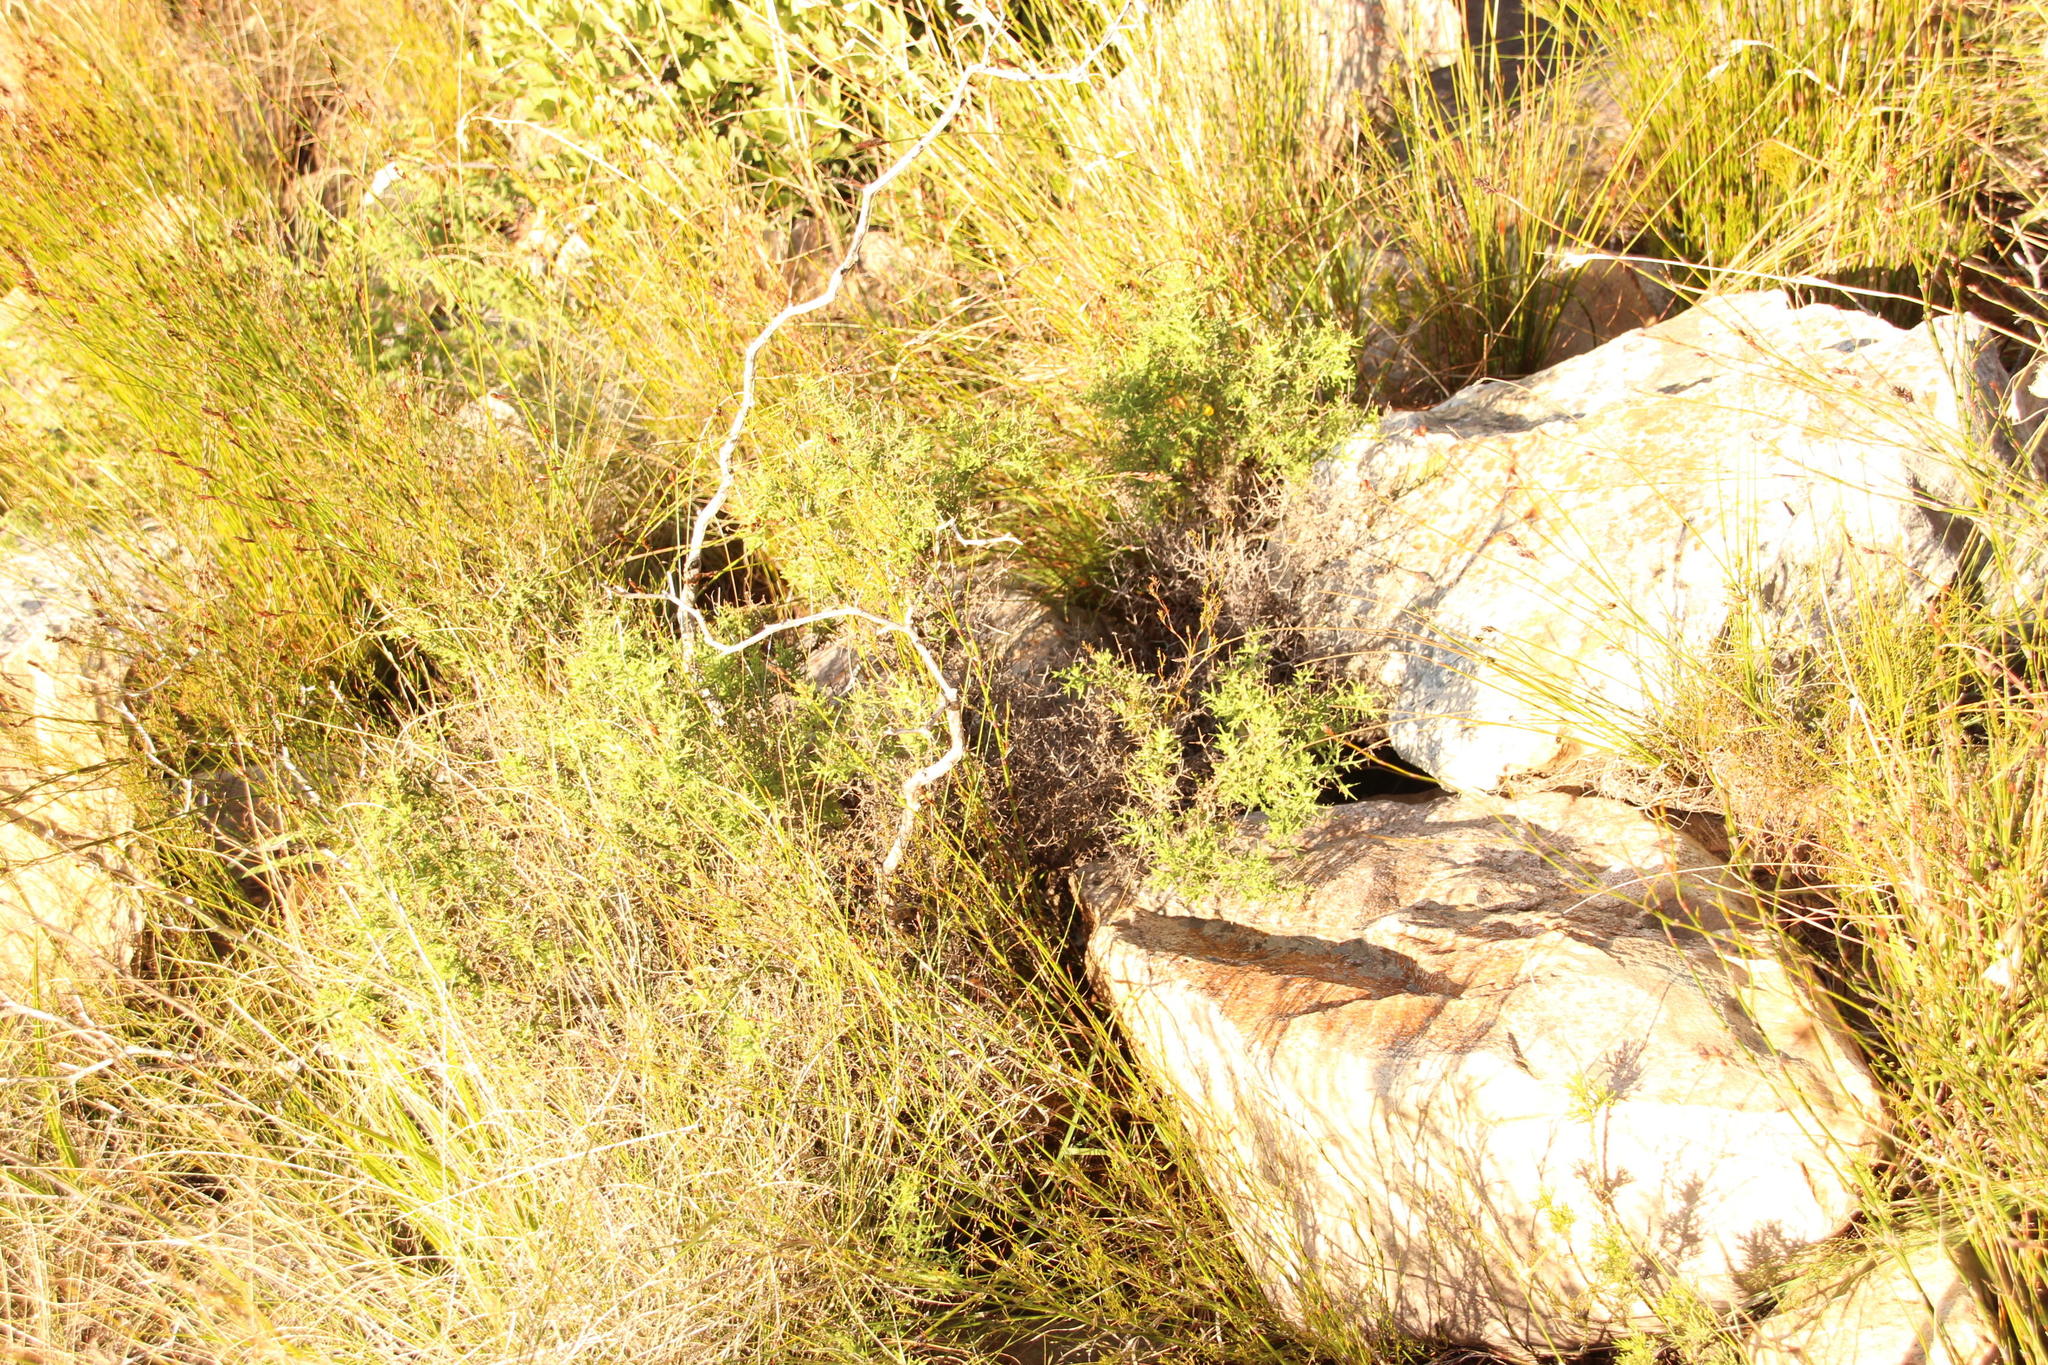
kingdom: Plantae
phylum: Tracheophyta
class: Magnoliopsida
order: Asterales
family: Asteraceae
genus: Osteospermum
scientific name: Osteospermum spinosum
